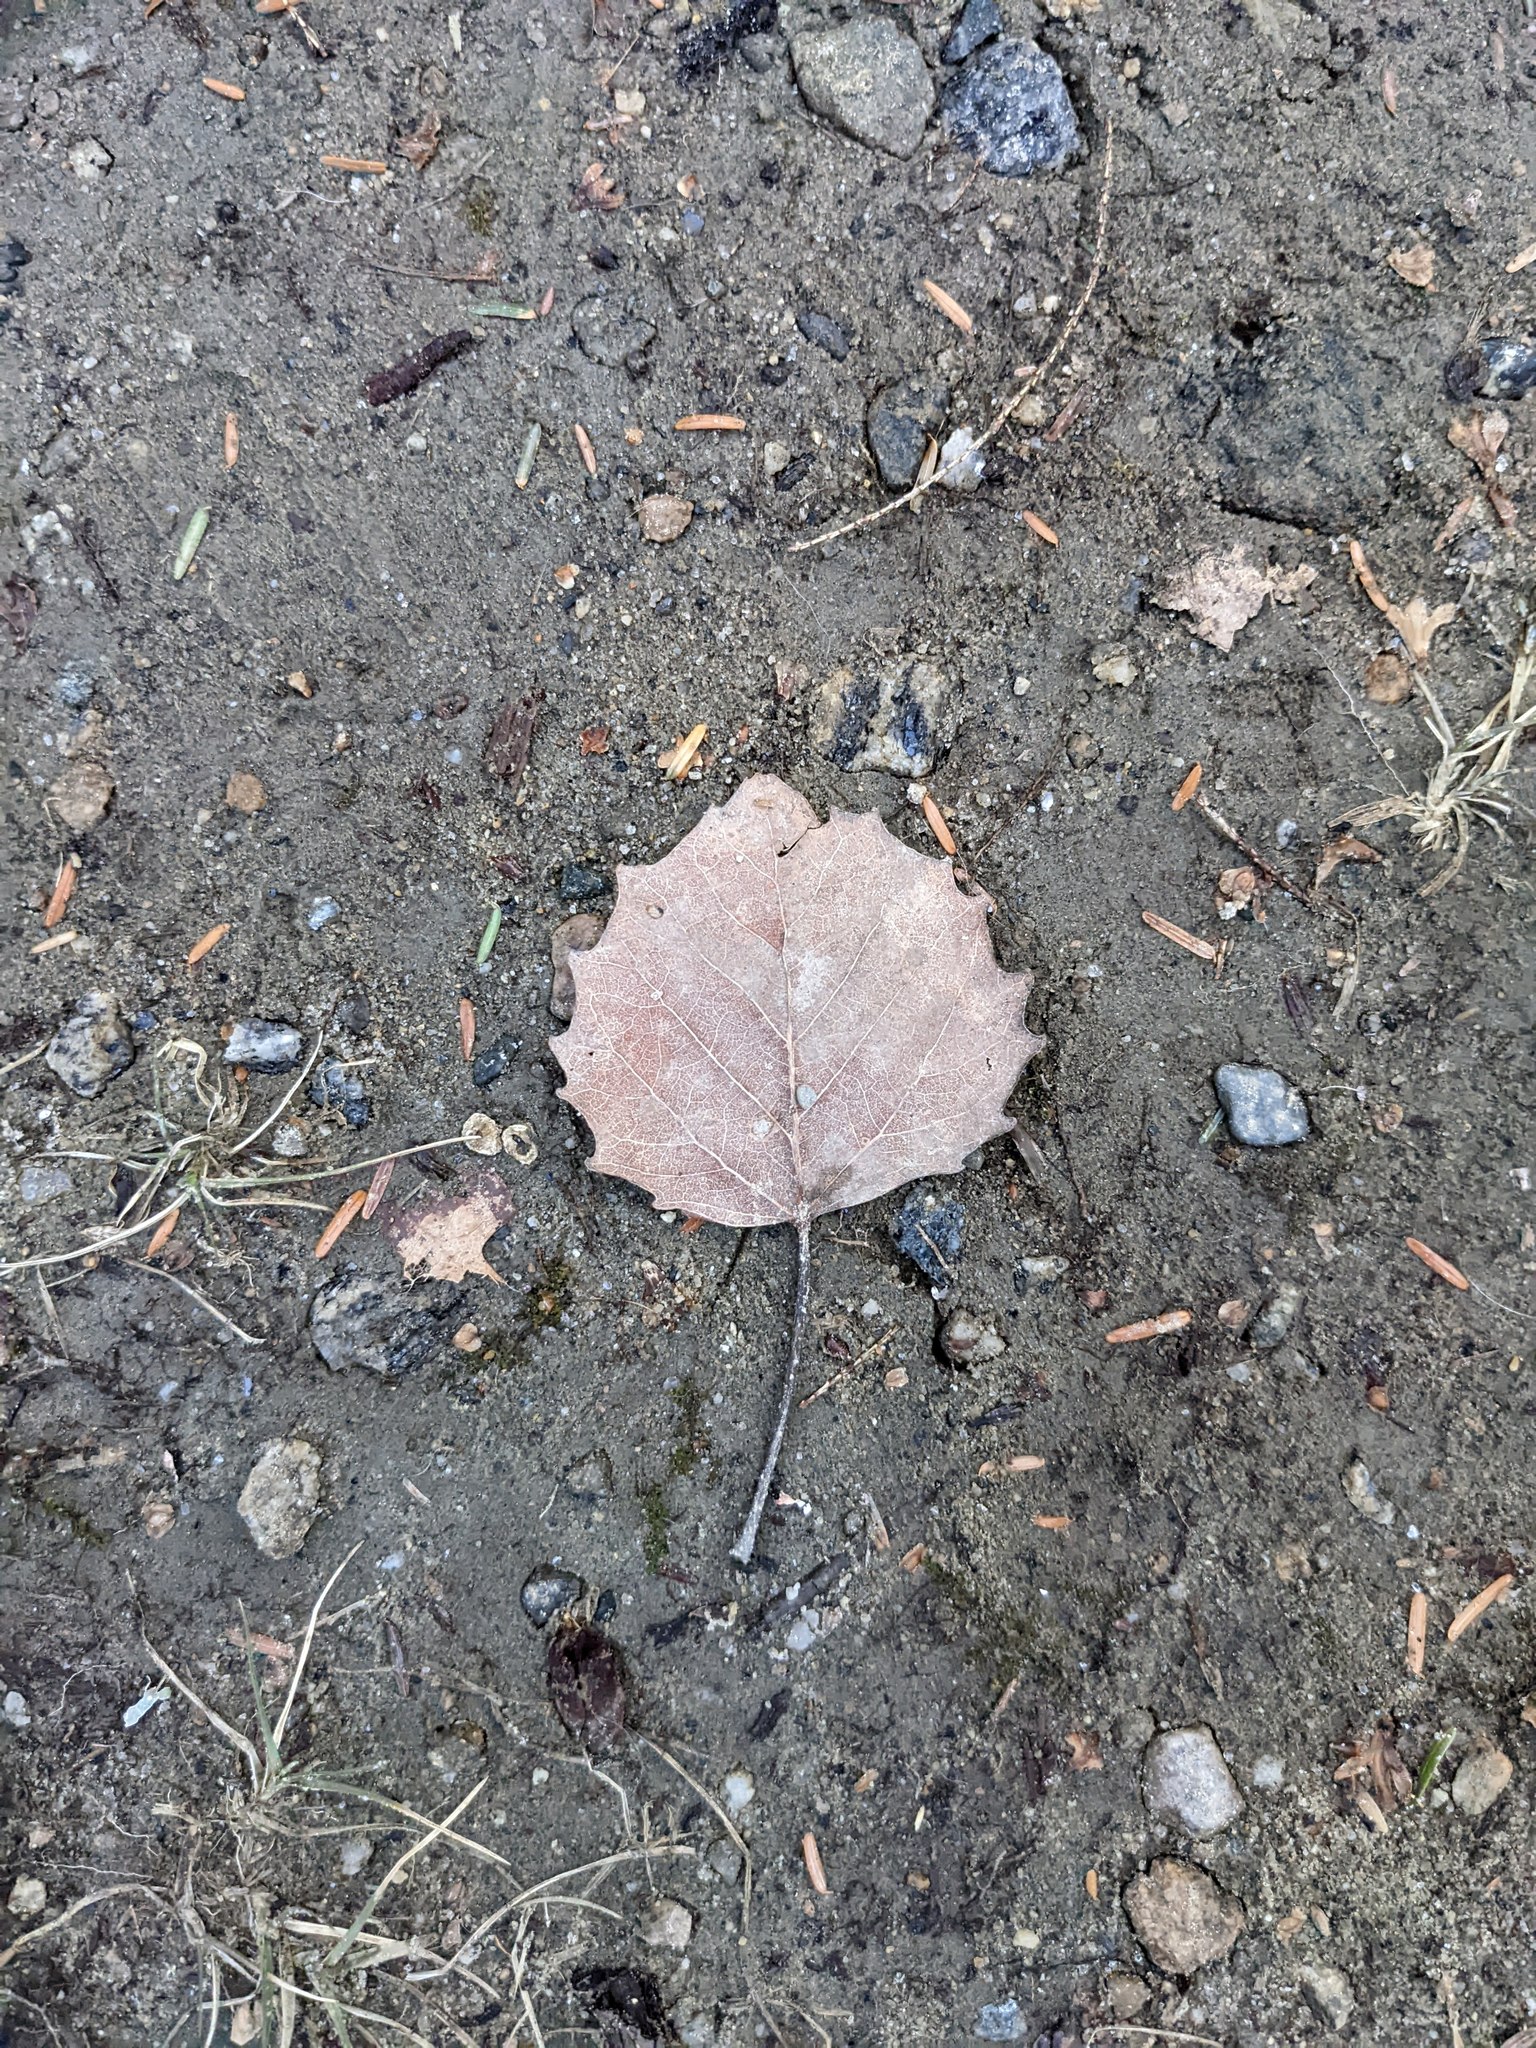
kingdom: Plantae
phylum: Tracheophyta
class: Magnoliopsida
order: Malpighiales
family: Salicaceae
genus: Populus
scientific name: Populus grandidentata
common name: Bigtooth aspen
